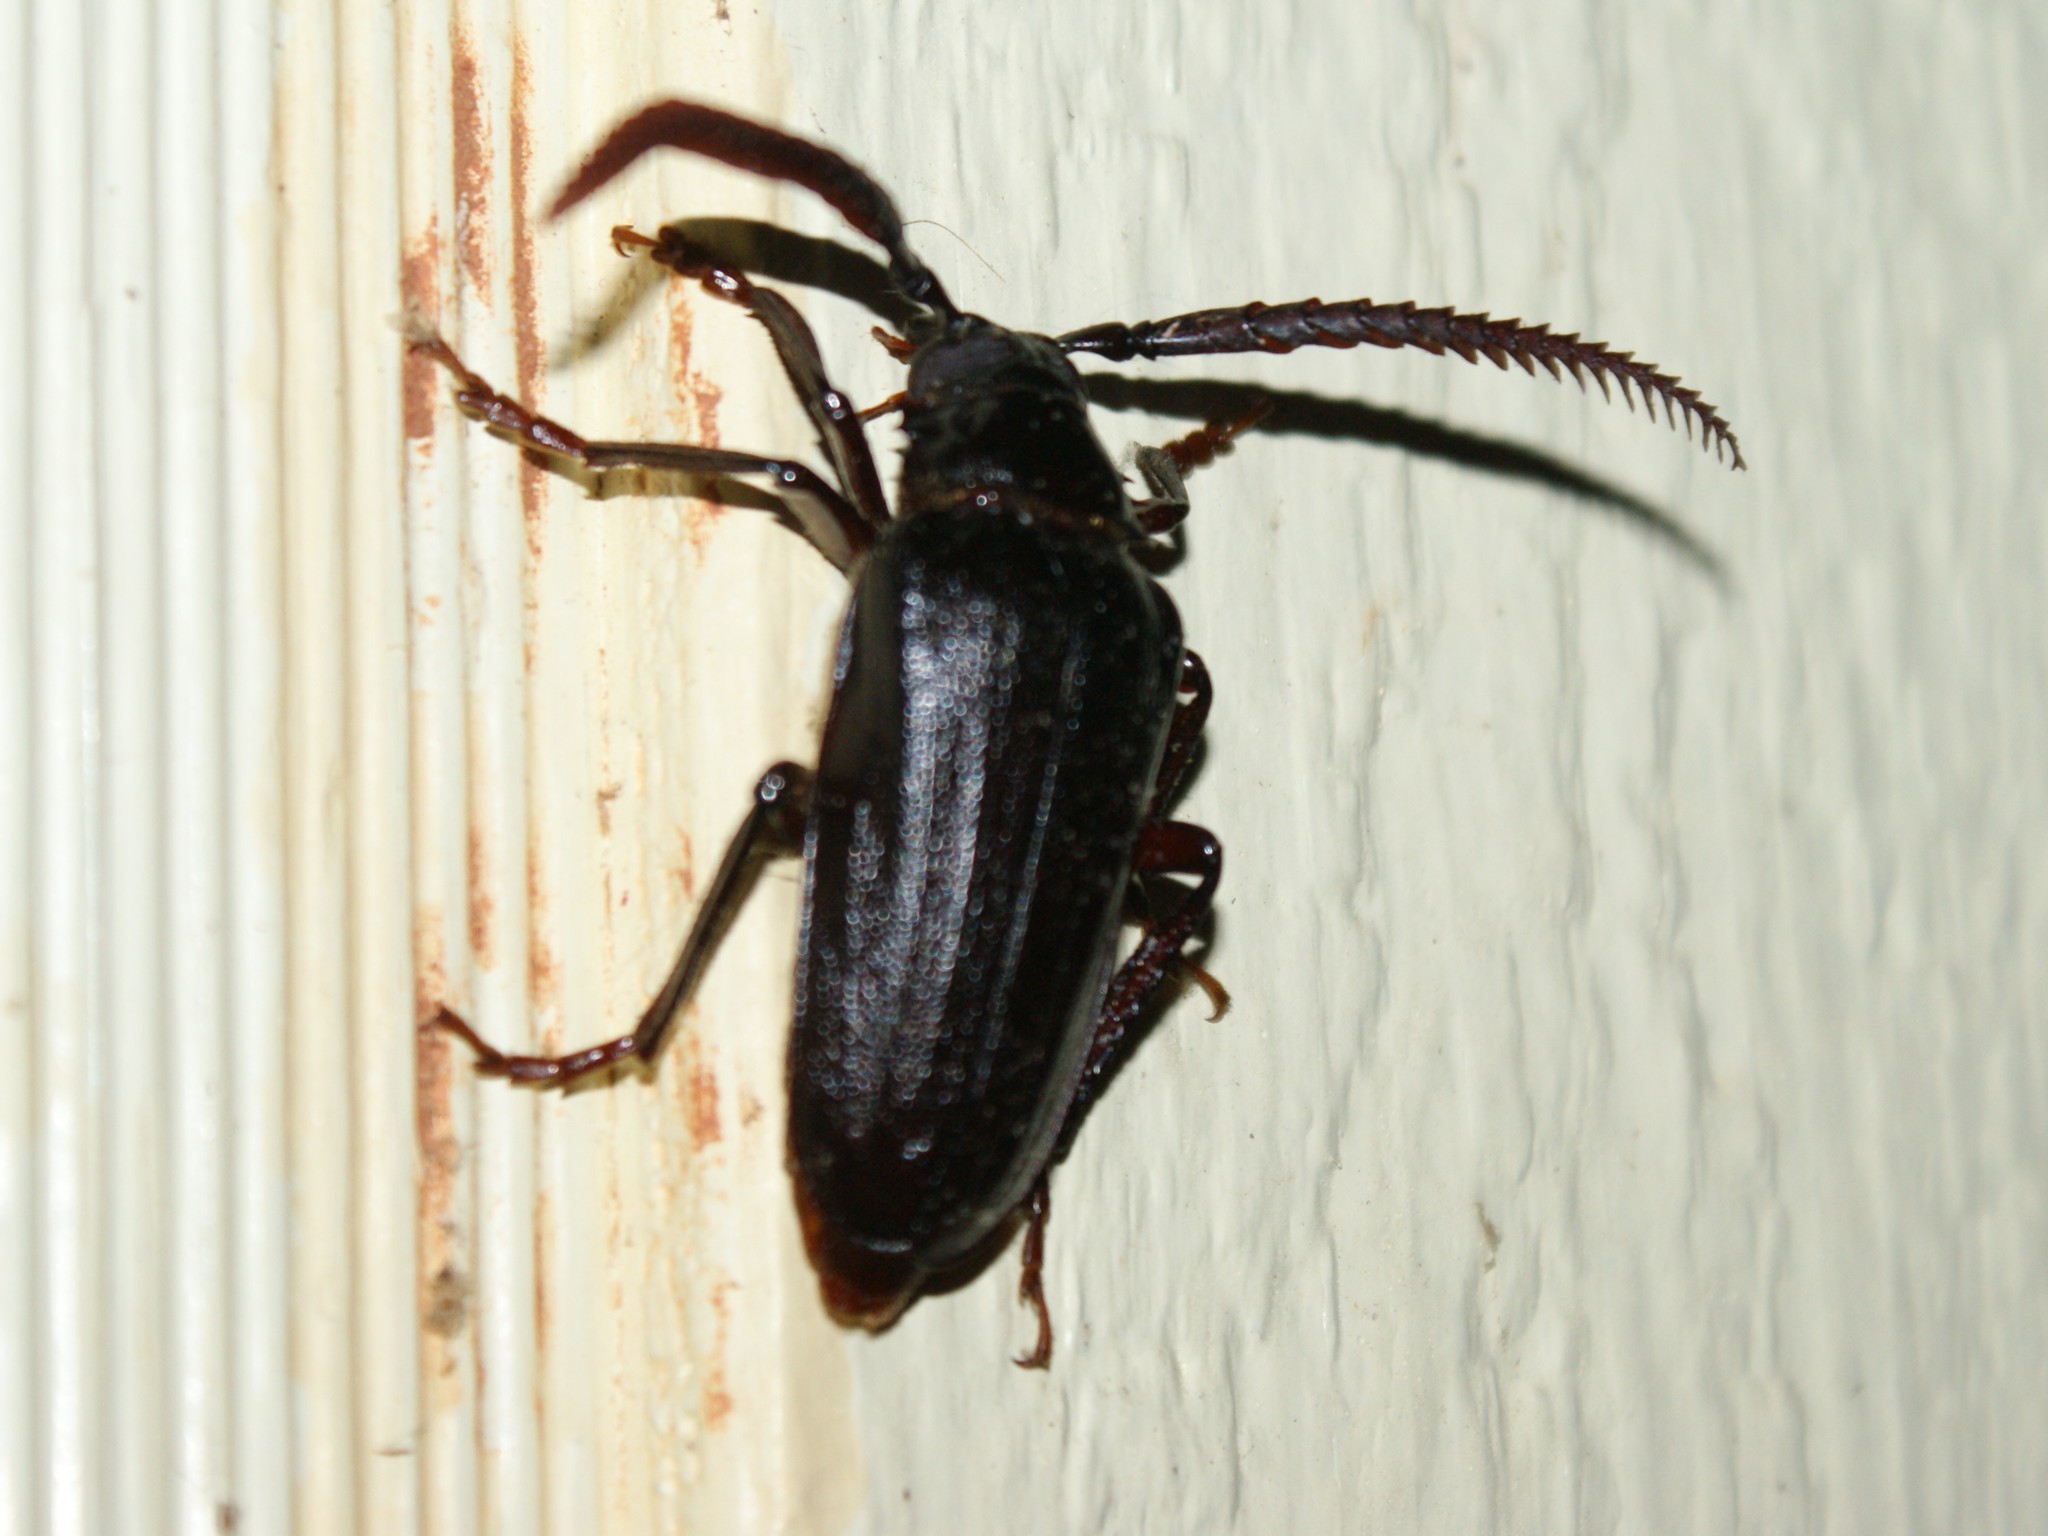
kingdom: Animalia
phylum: Arthropoda
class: Insecta
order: Coleoptera
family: Cerambycidae
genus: Prionus
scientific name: Prionus imbricornis
